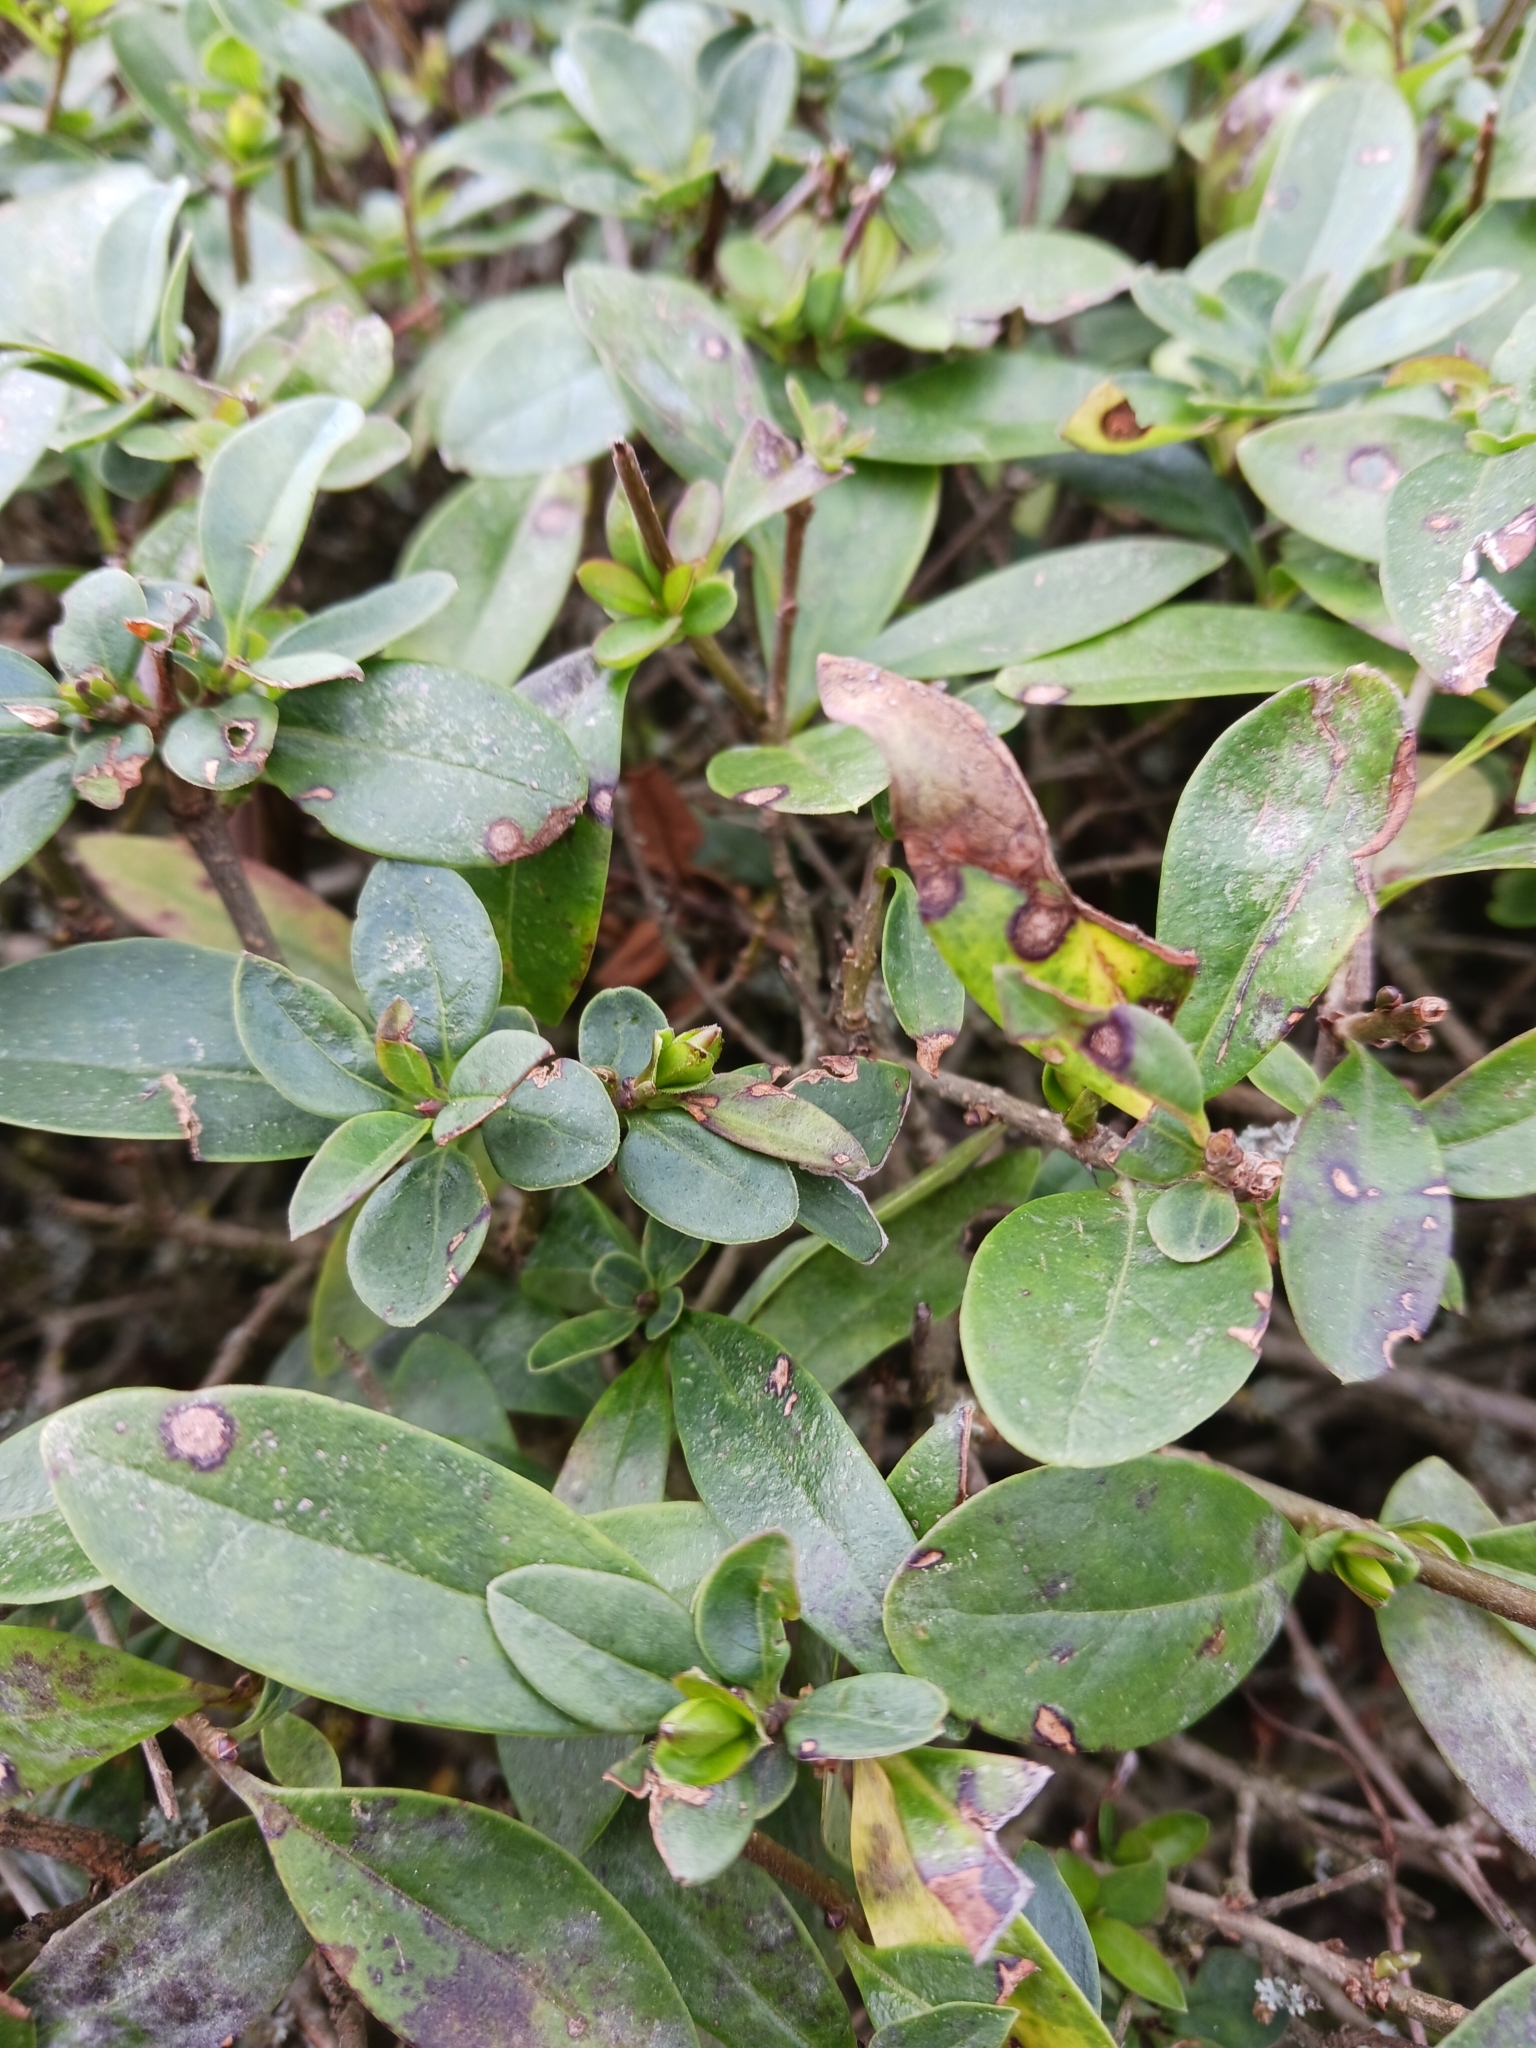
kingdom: Fungi
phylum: Ascomycota
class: Leotiomycetes
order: Helotiales
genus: Thedgonia
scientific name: Thedgonia ligustrina
